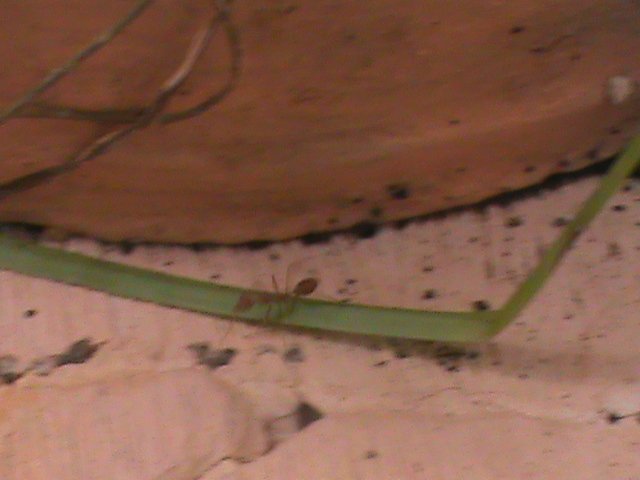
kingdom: Animalia
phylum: Arthropoda
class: Insecta
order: Hymenoptera
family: Formicidae
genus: Oecophylla
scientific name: Oecophylla smaragdina
